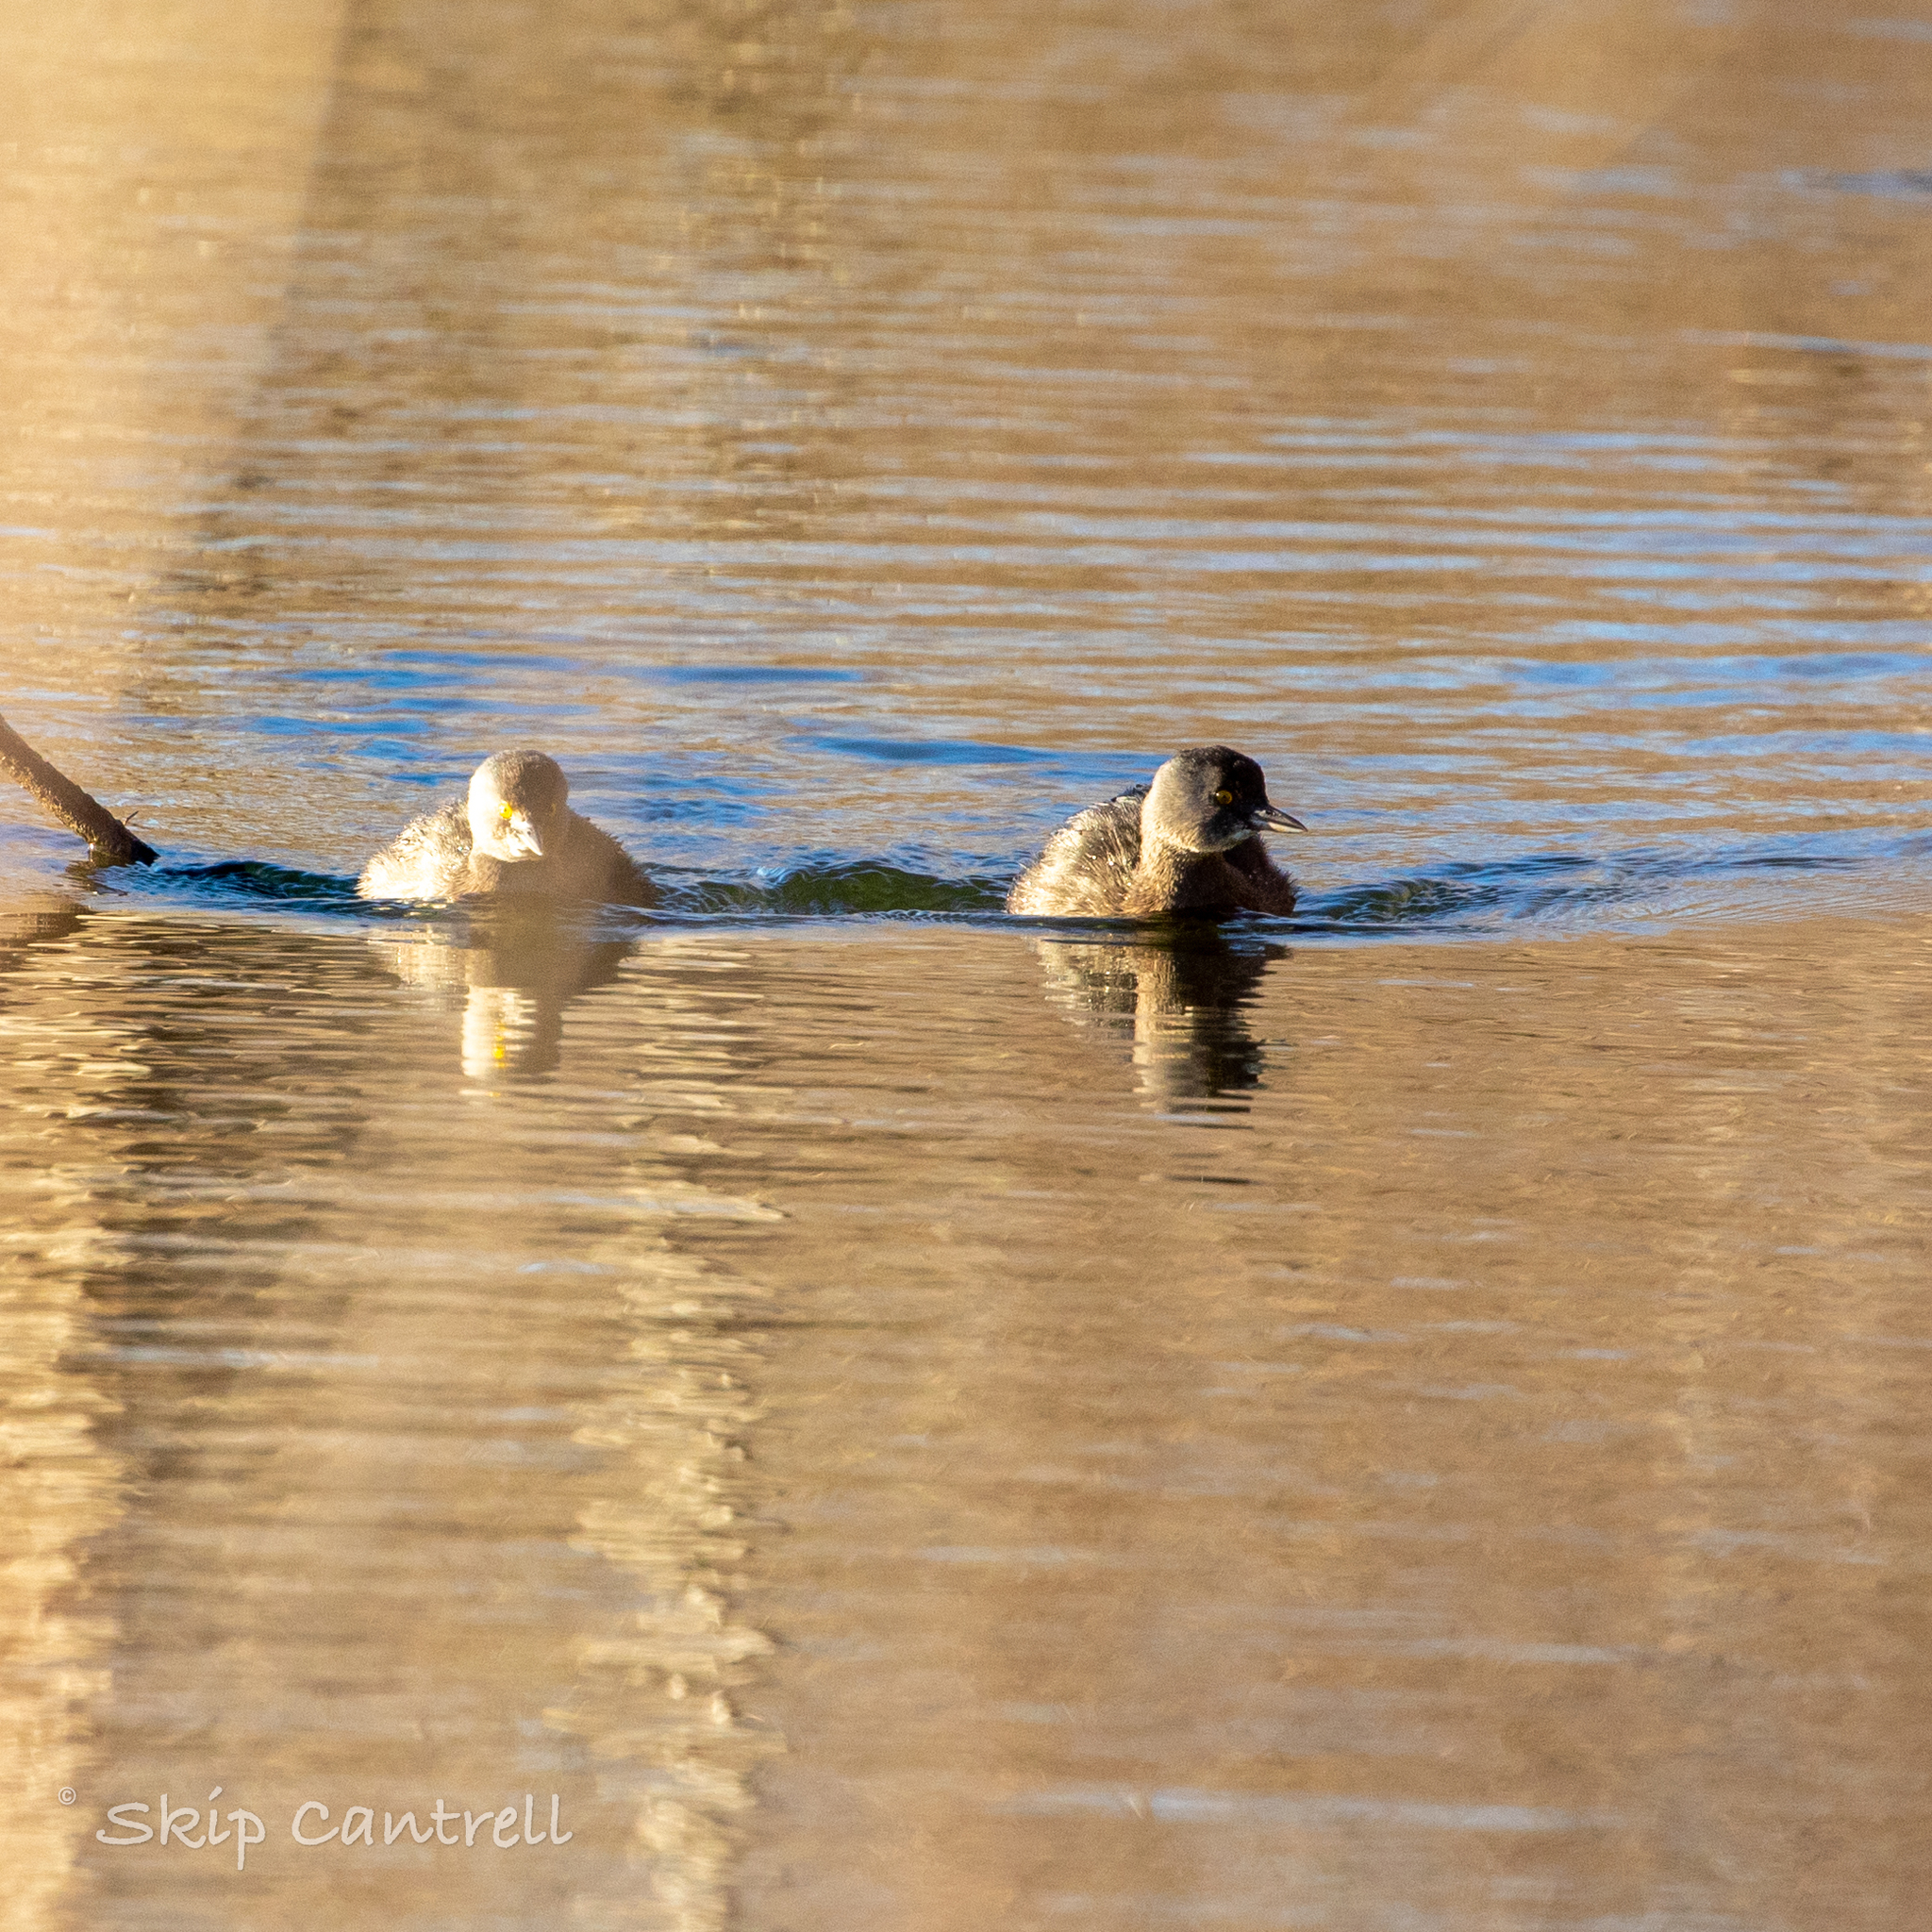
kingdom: Animalia
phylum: Chordata
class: Aves
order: Podicipediformes
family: Podicipedidae
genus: Tachybaptus
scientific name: Tachybaptus dominicus
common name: Least grebe
